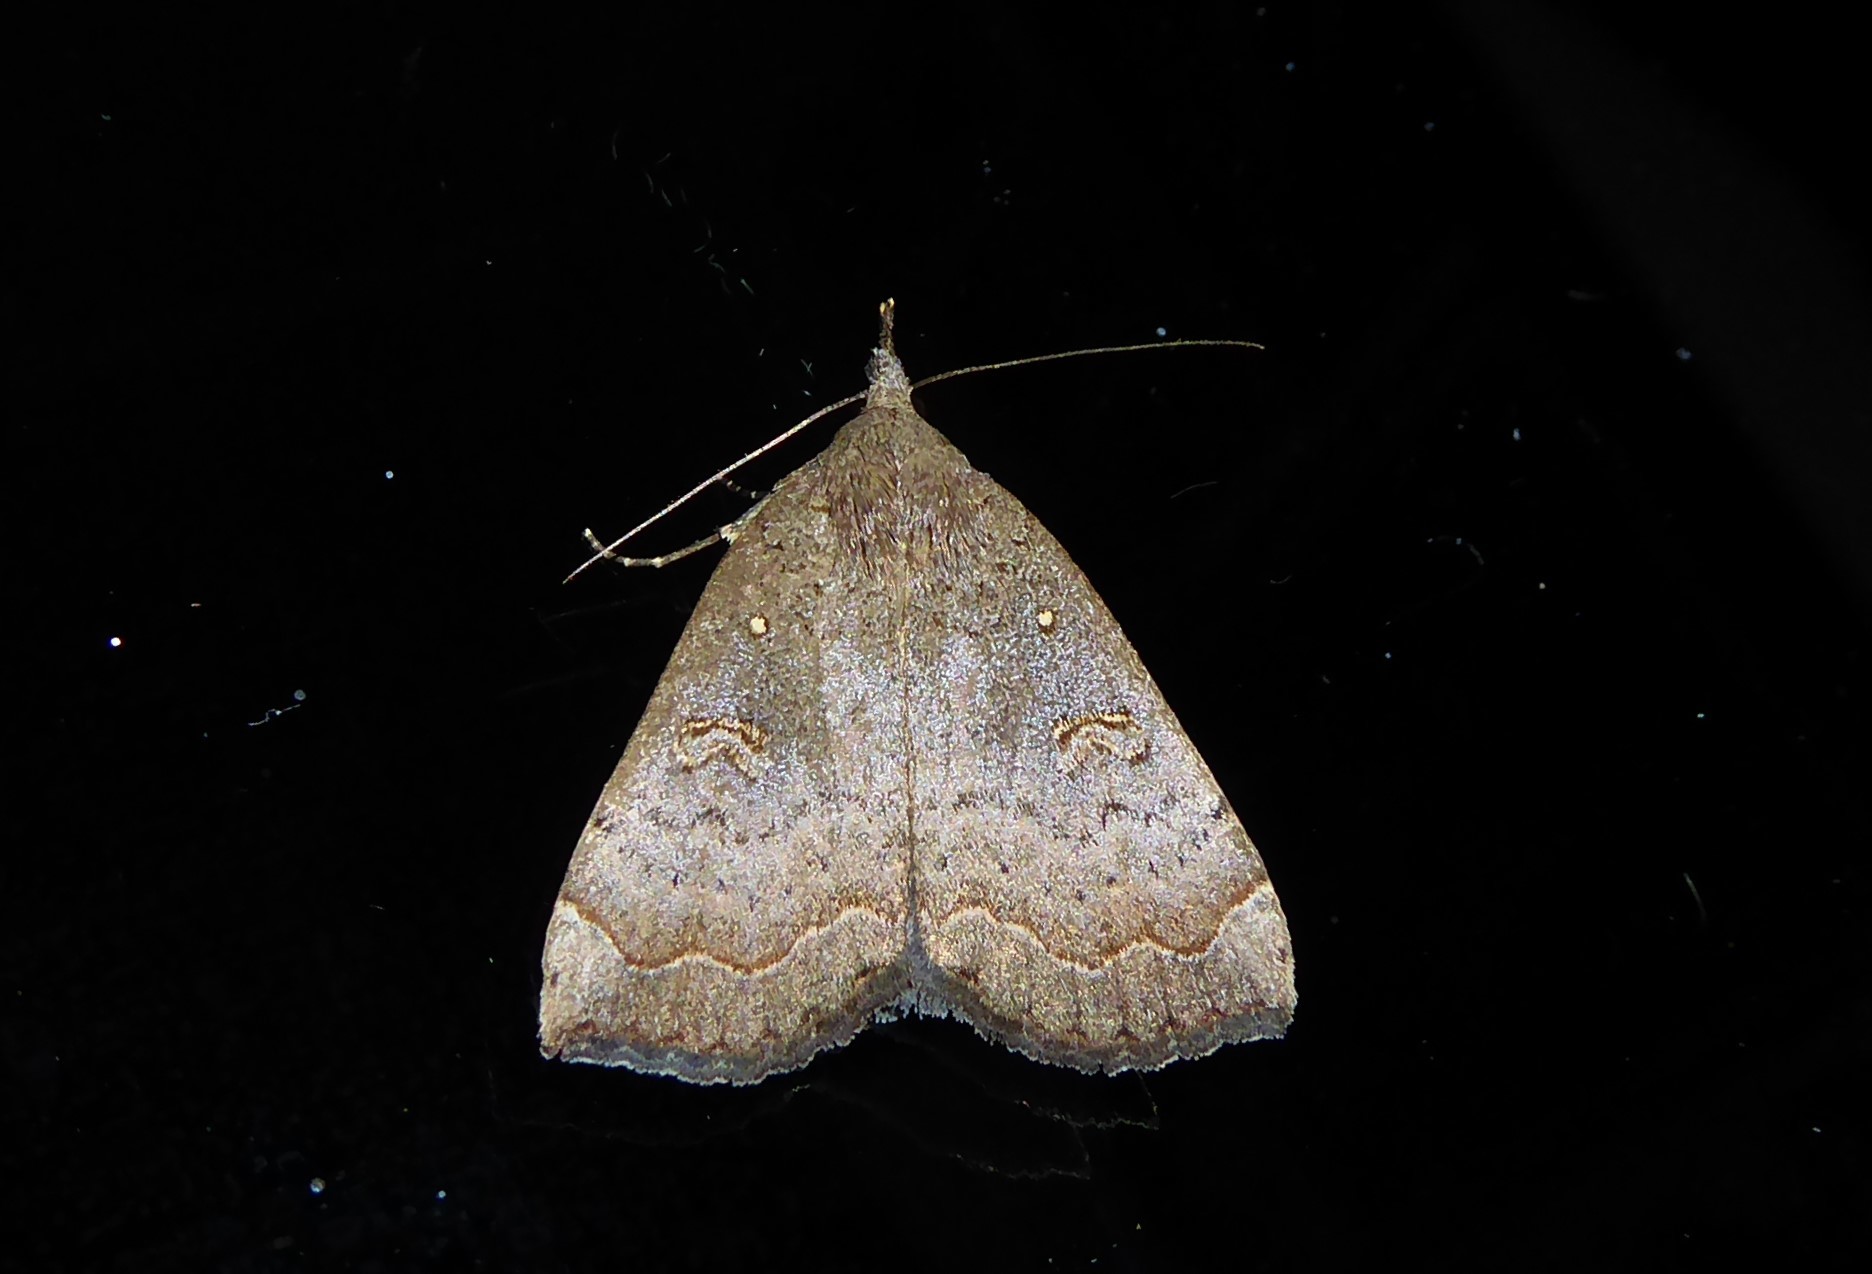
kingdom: Animalia
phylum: Arthropoda
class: Insecta
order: Lepidoptera
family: Erebidae
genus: Rhapsa
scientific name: Rhapsa scotosialis
